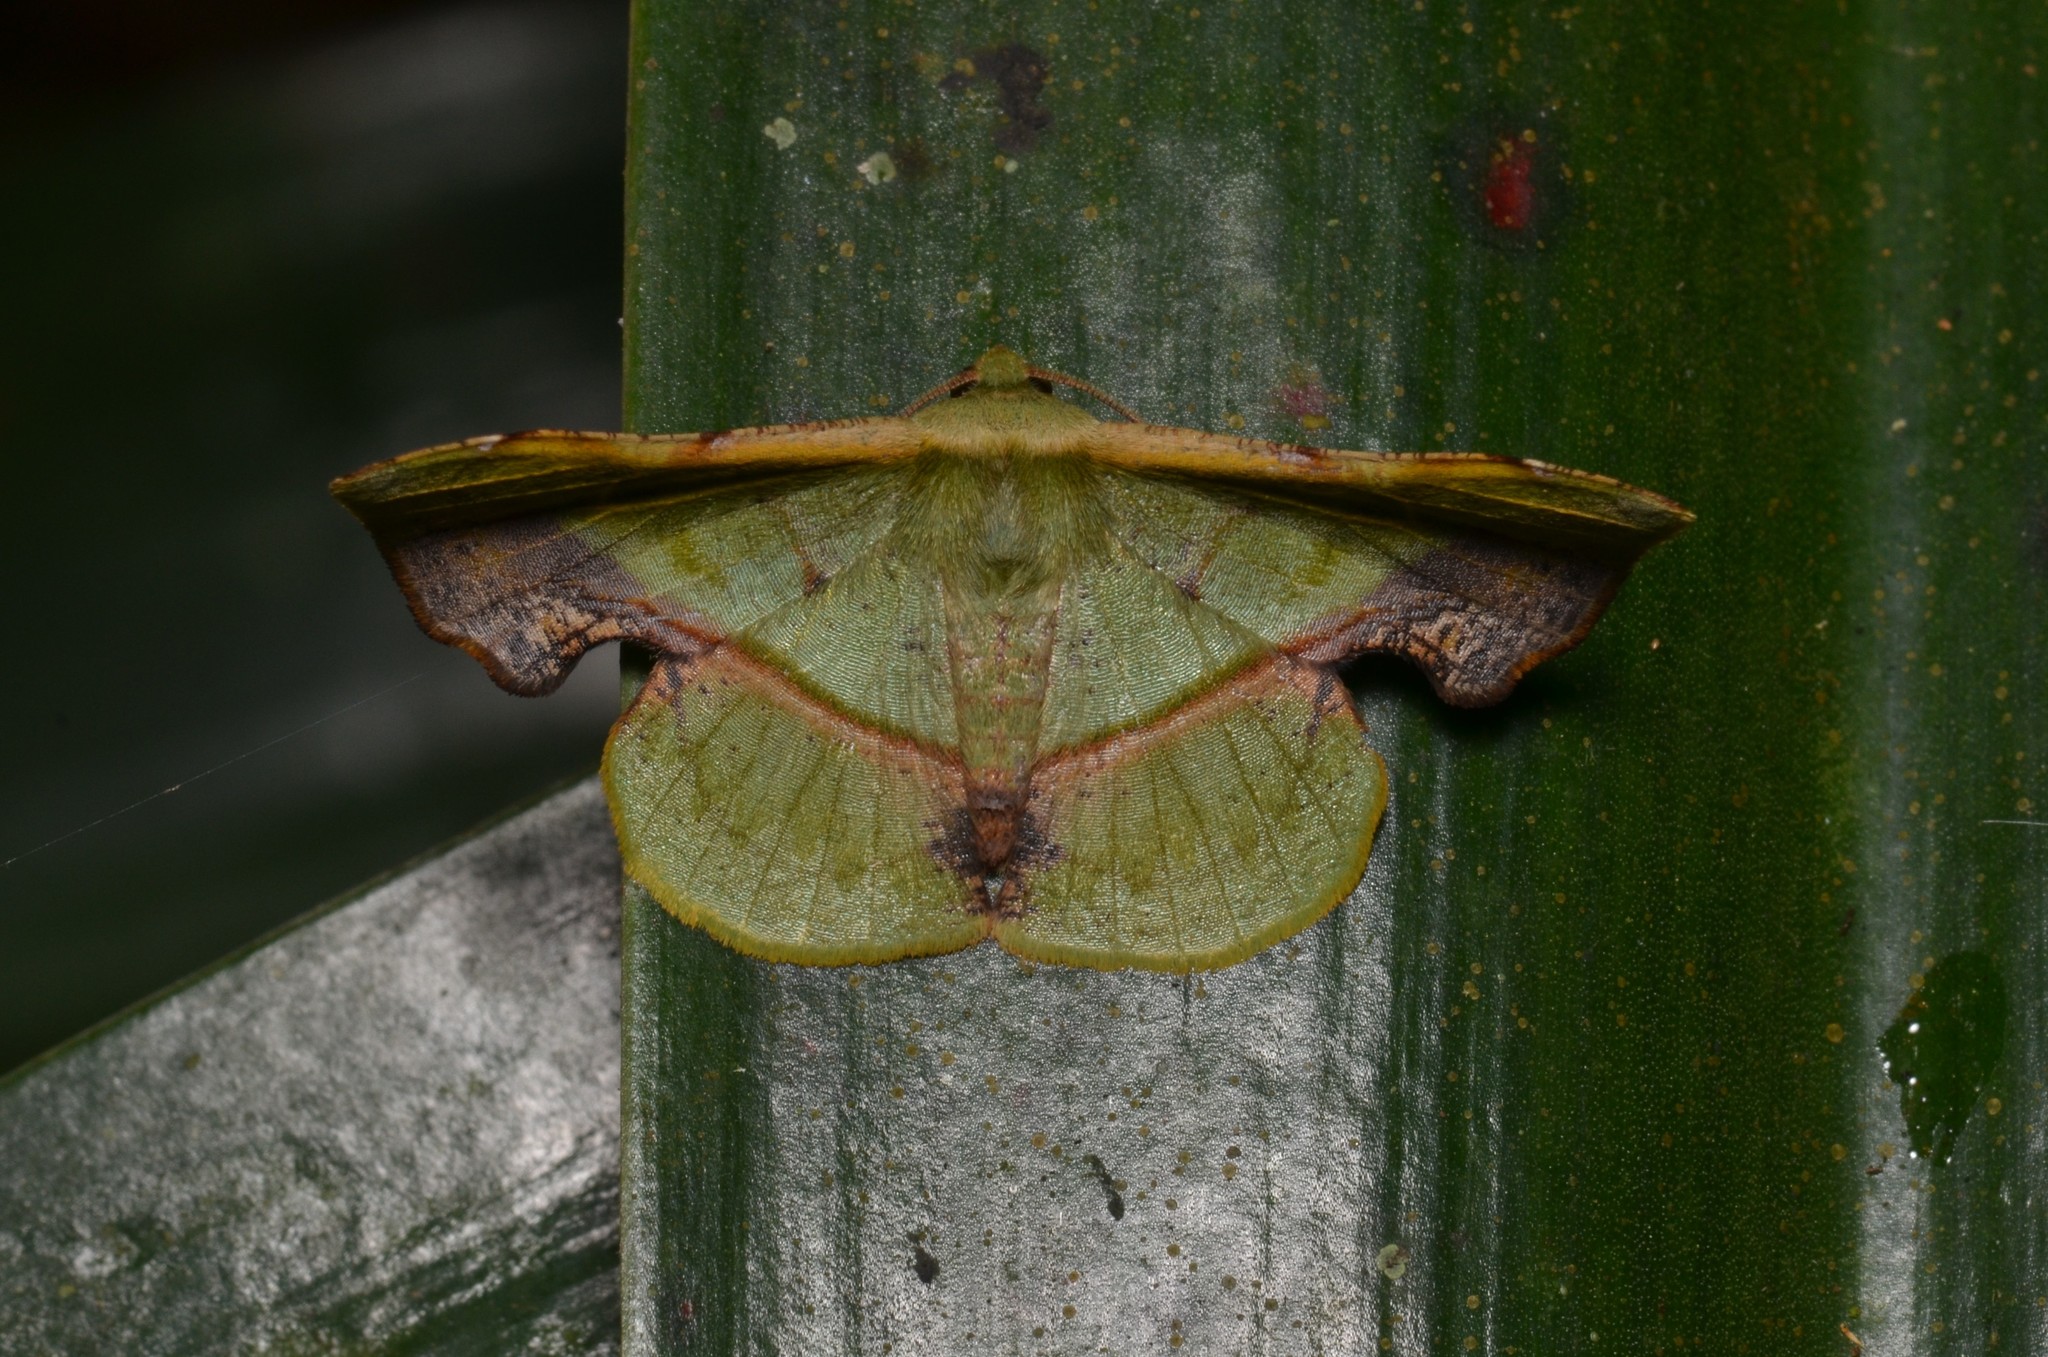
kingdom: Animalia
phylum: Arthropoda
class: Insecta
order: Lepidoptera
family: Geometridae
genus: Fascellina
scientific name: Fascellina plagiata
